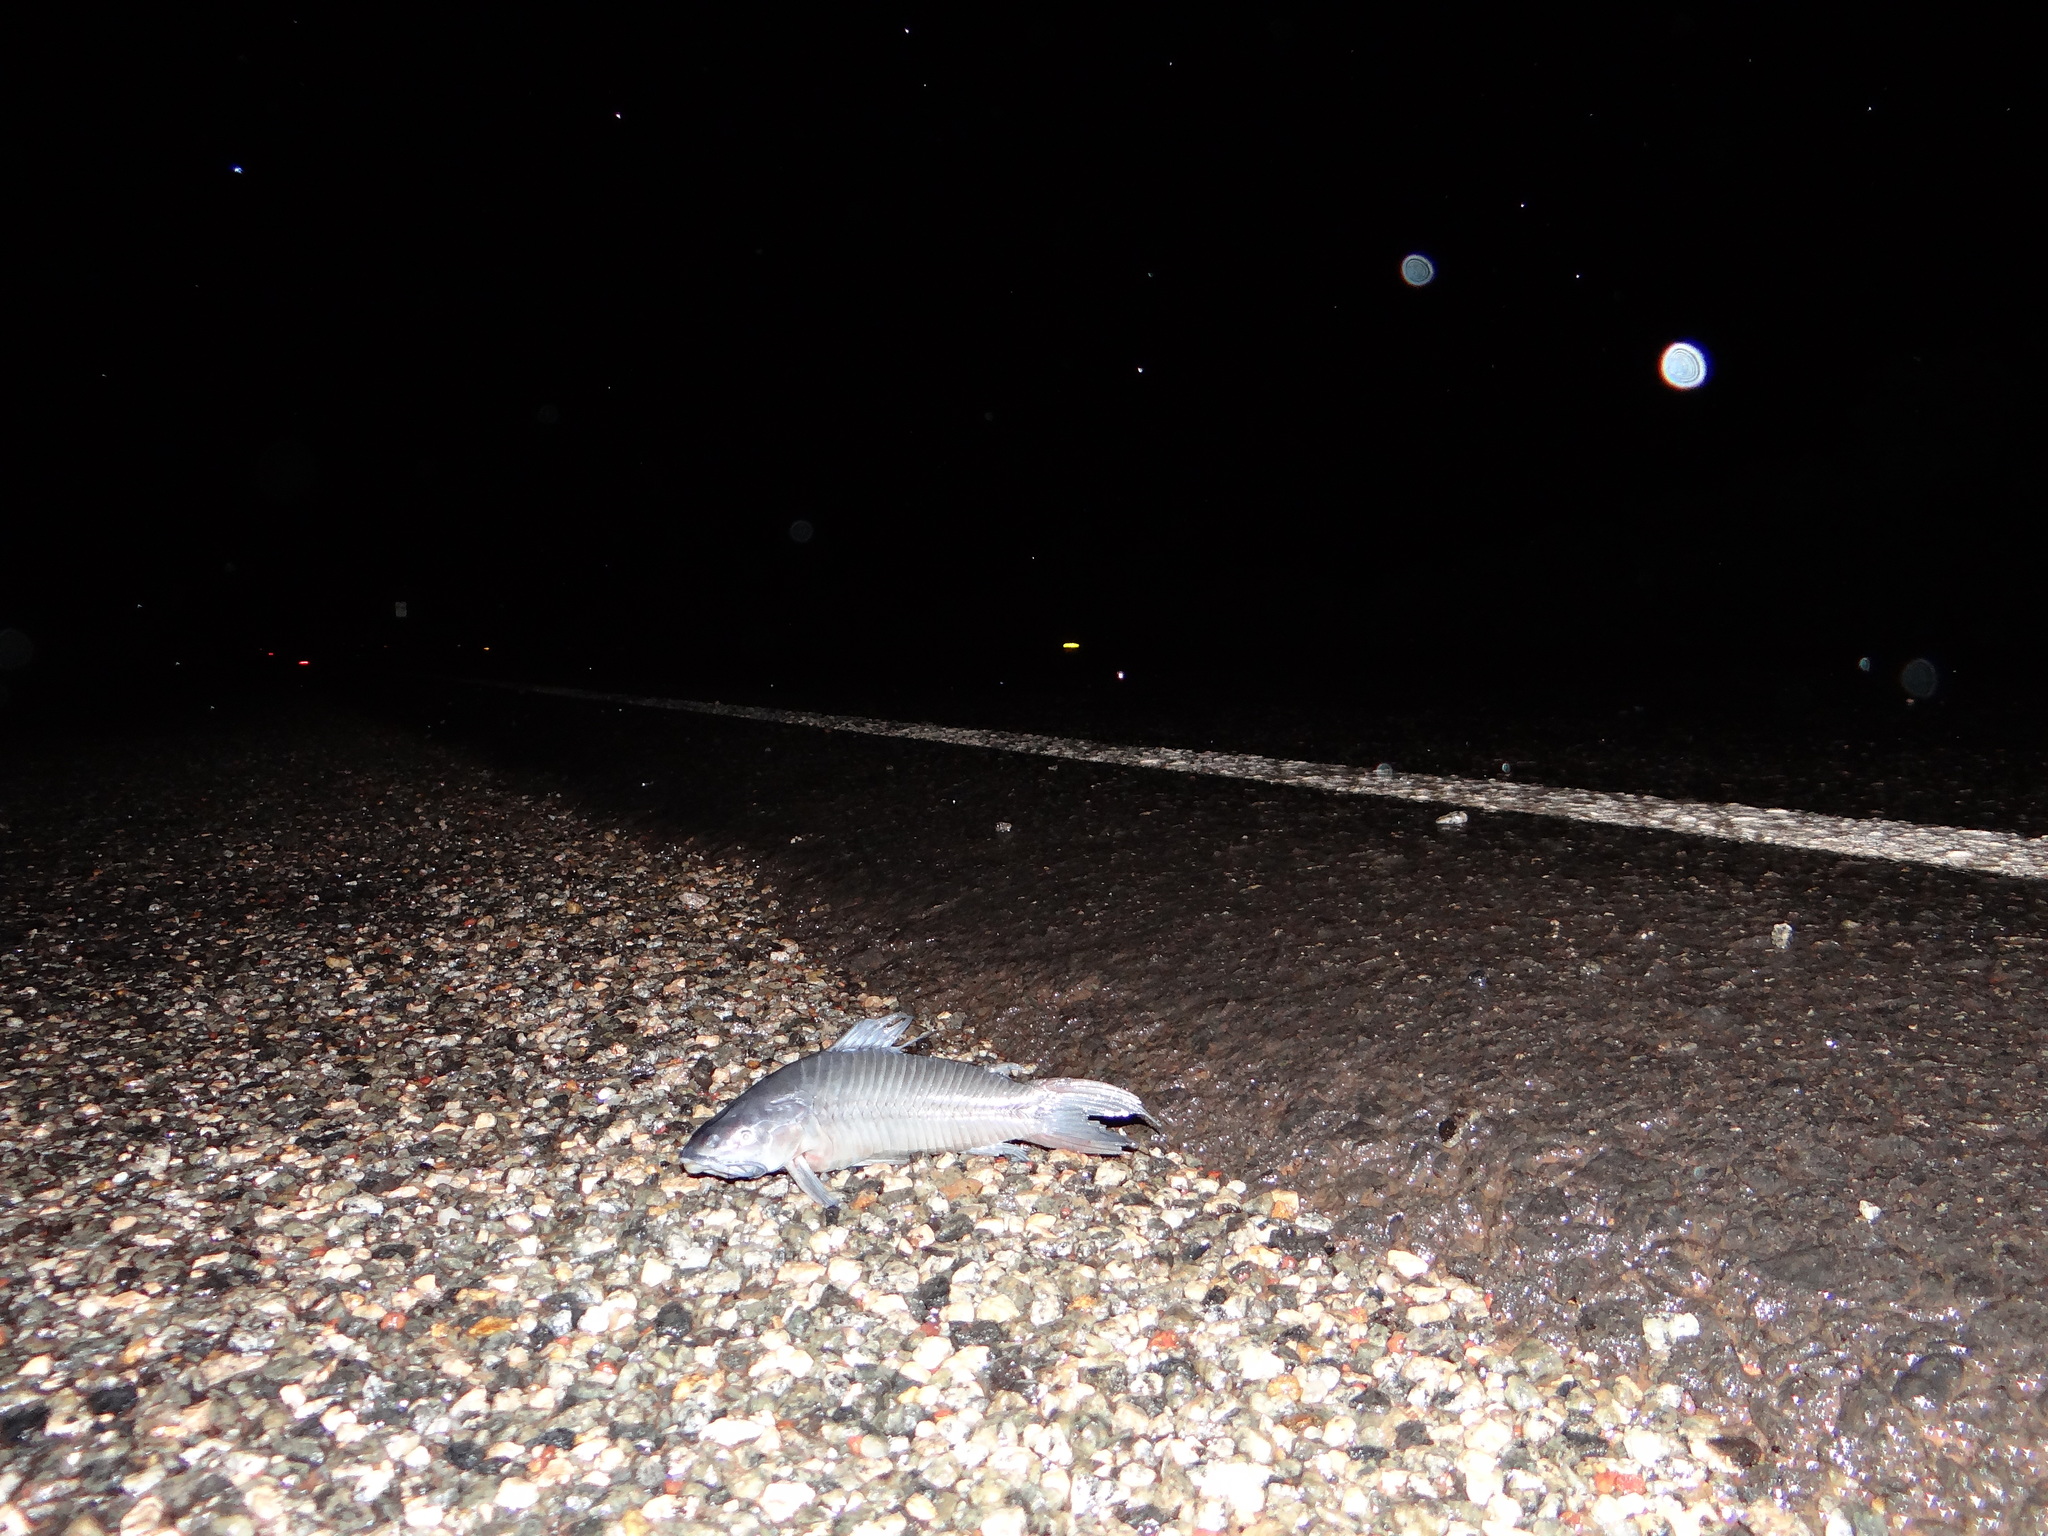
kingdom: Animalia
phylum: Chordata
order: Siluriformes
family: Callichthyidae
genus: Hoplosternum
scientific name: Hoplosternum littorale
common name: Brown hoplo
